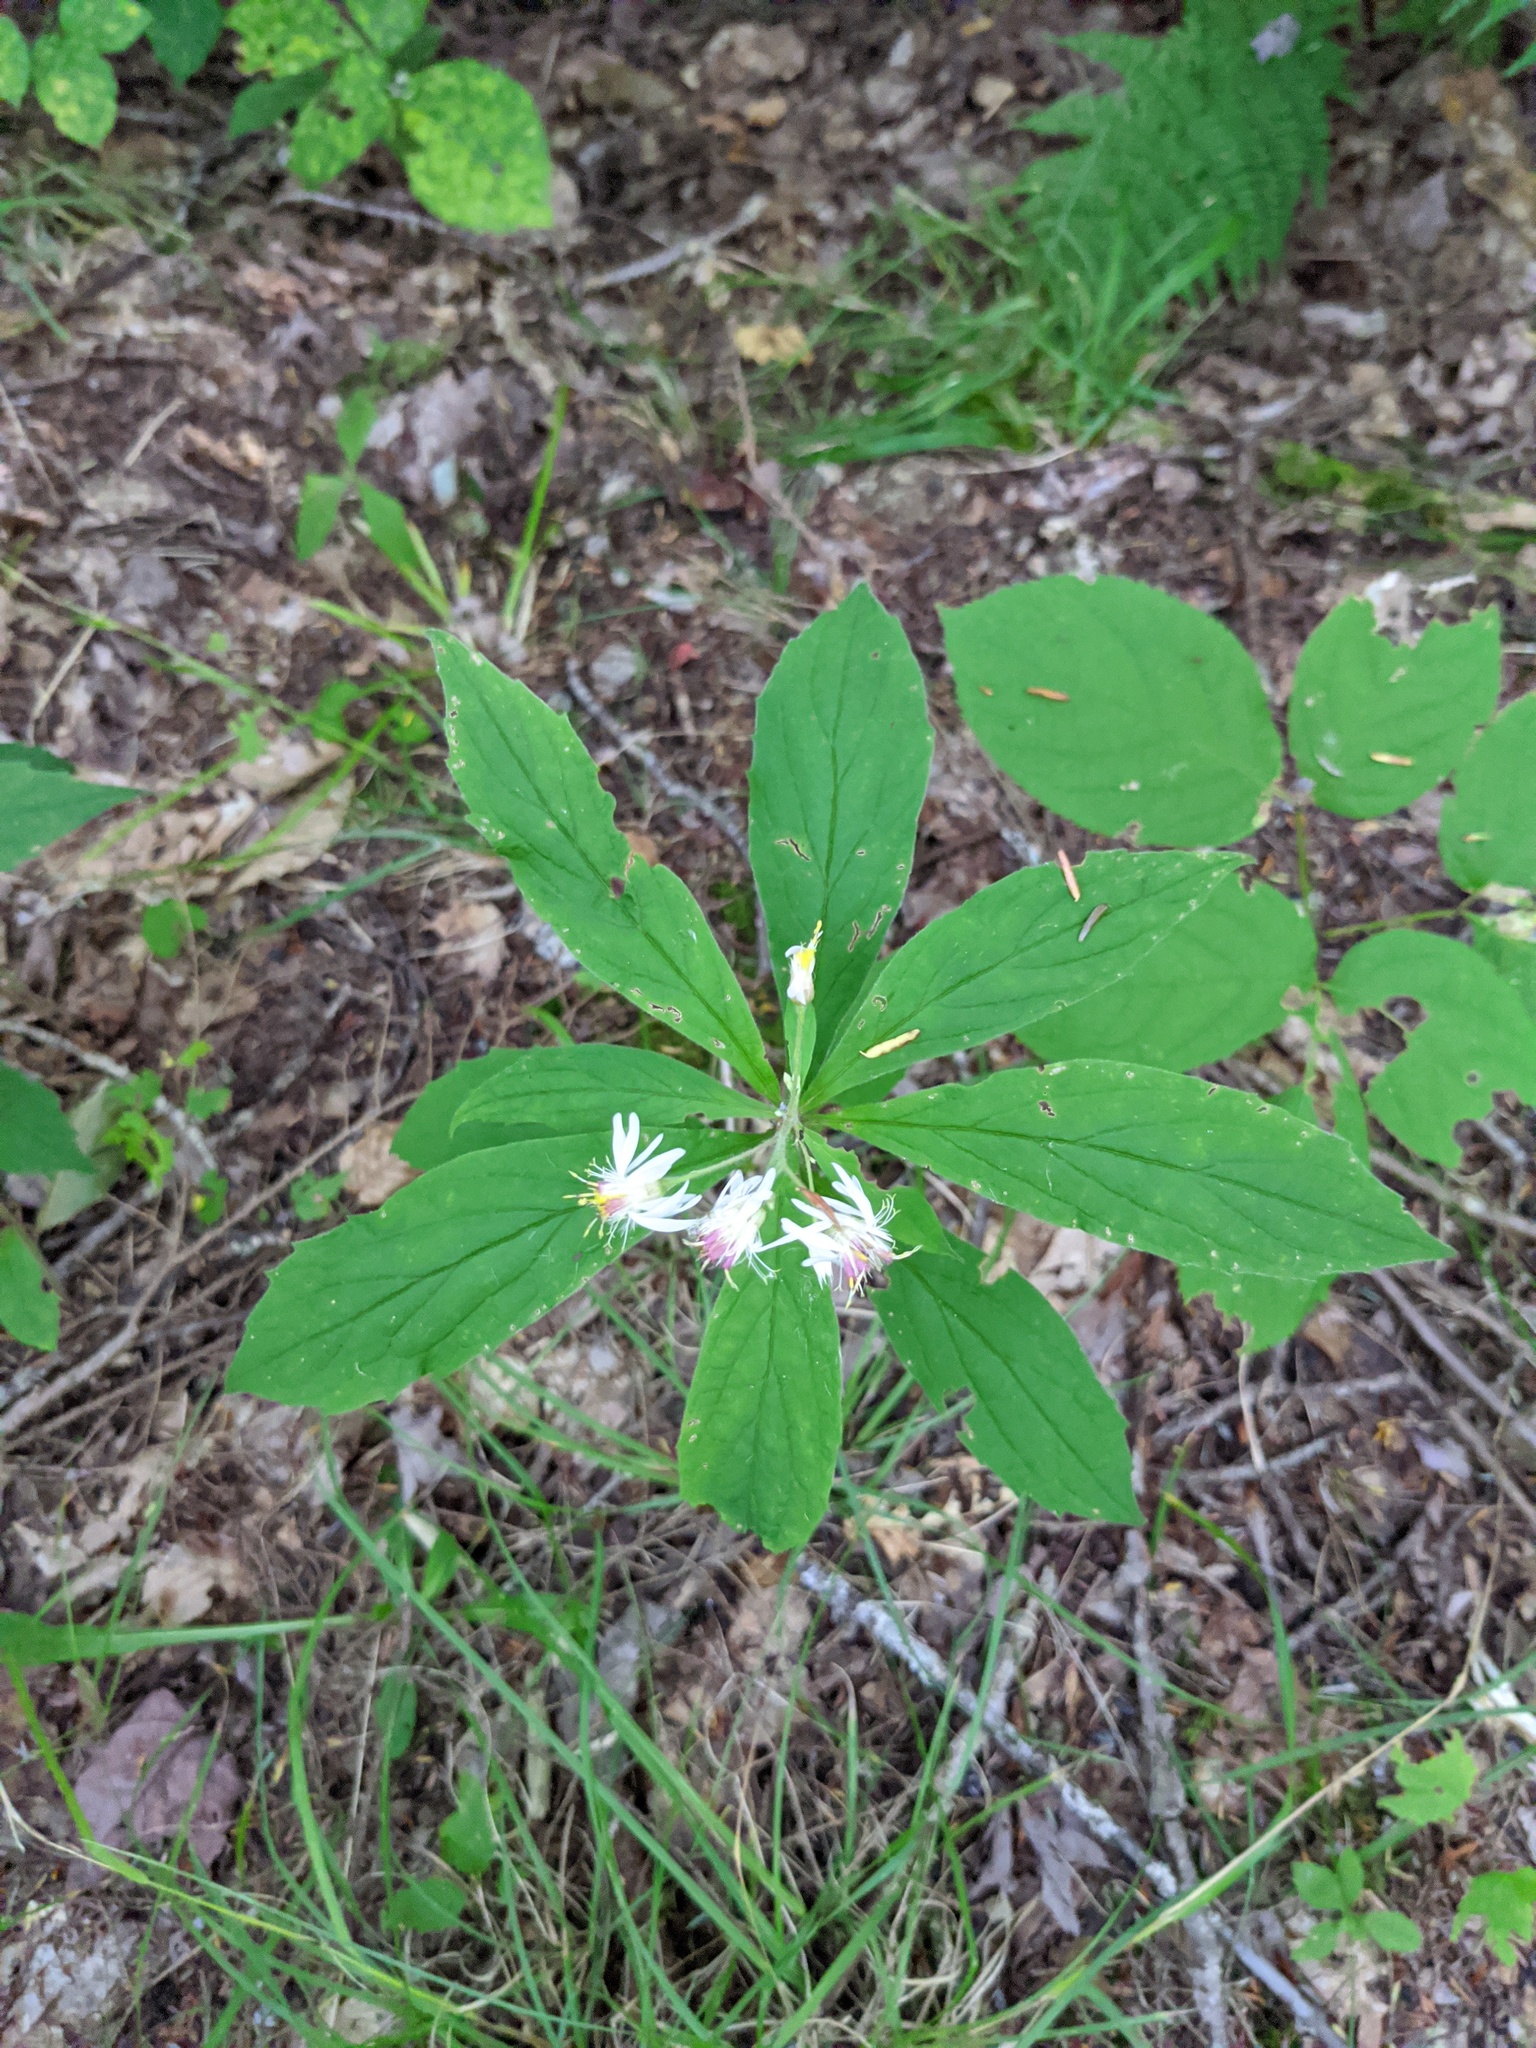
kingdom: Plantae
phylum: Tracheophyta
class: Magnoliopsida
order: Asterales
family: Asteraceae
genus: Oclemena
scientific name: Oclemena acuminata
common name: Mountain aster
